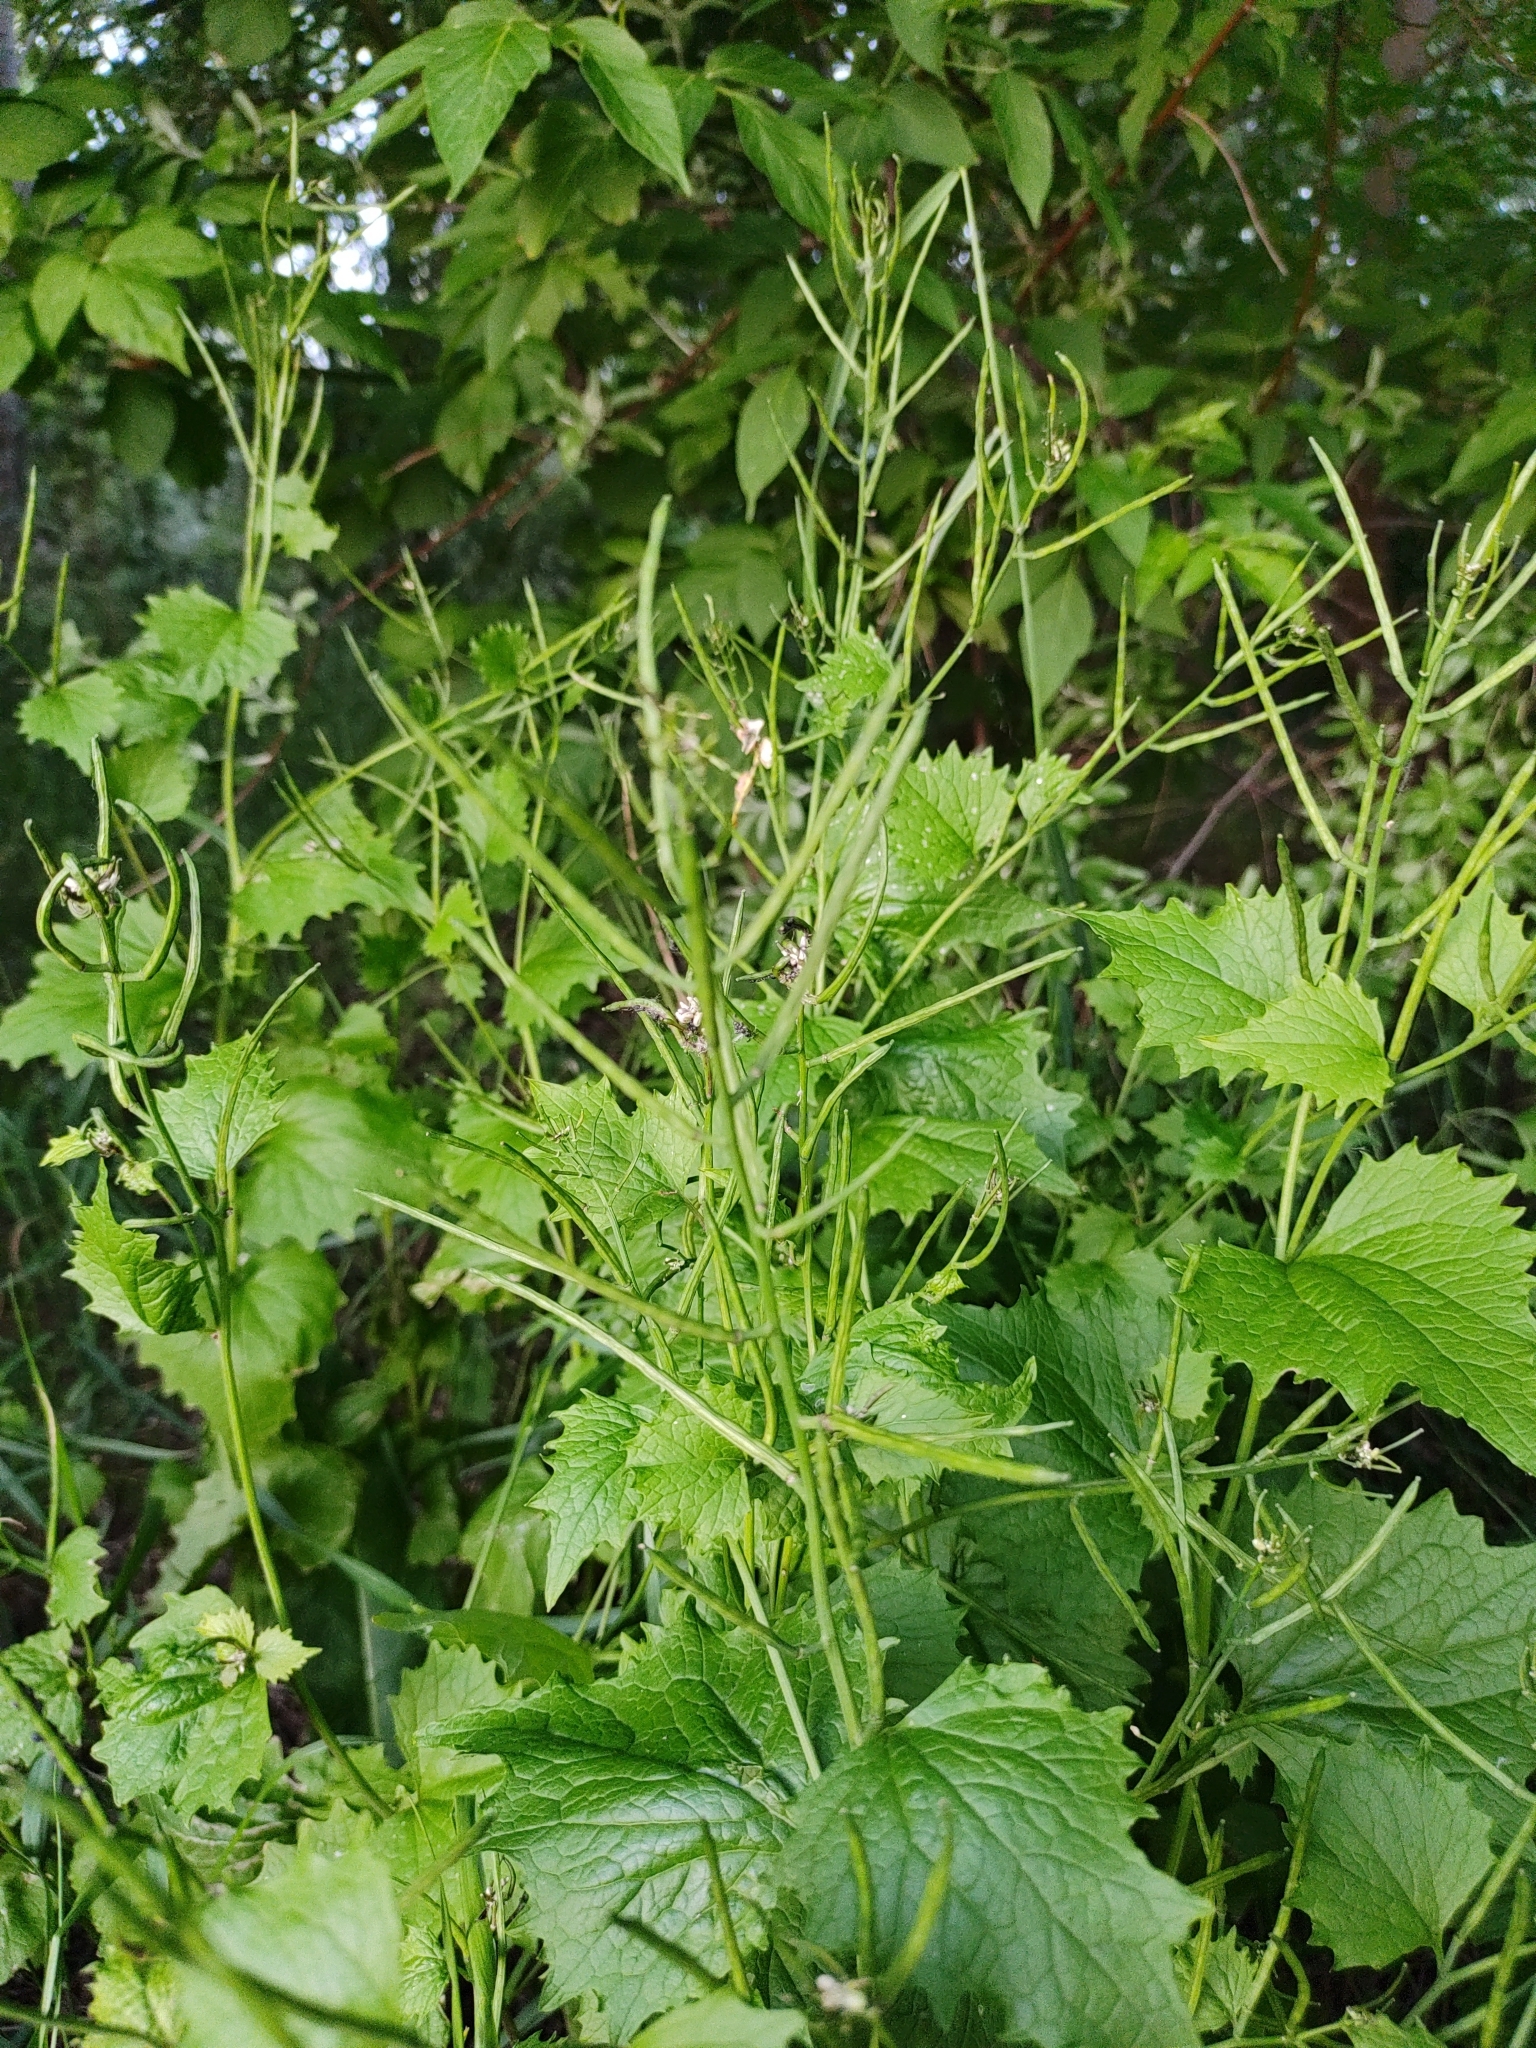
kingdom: Plantae
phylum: Tracheophyta
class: Magnoliopsida
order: Brassicales
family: Brassicaceae
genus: Alliaria
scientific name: Alliaria petiolata
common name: Garlic mustard
